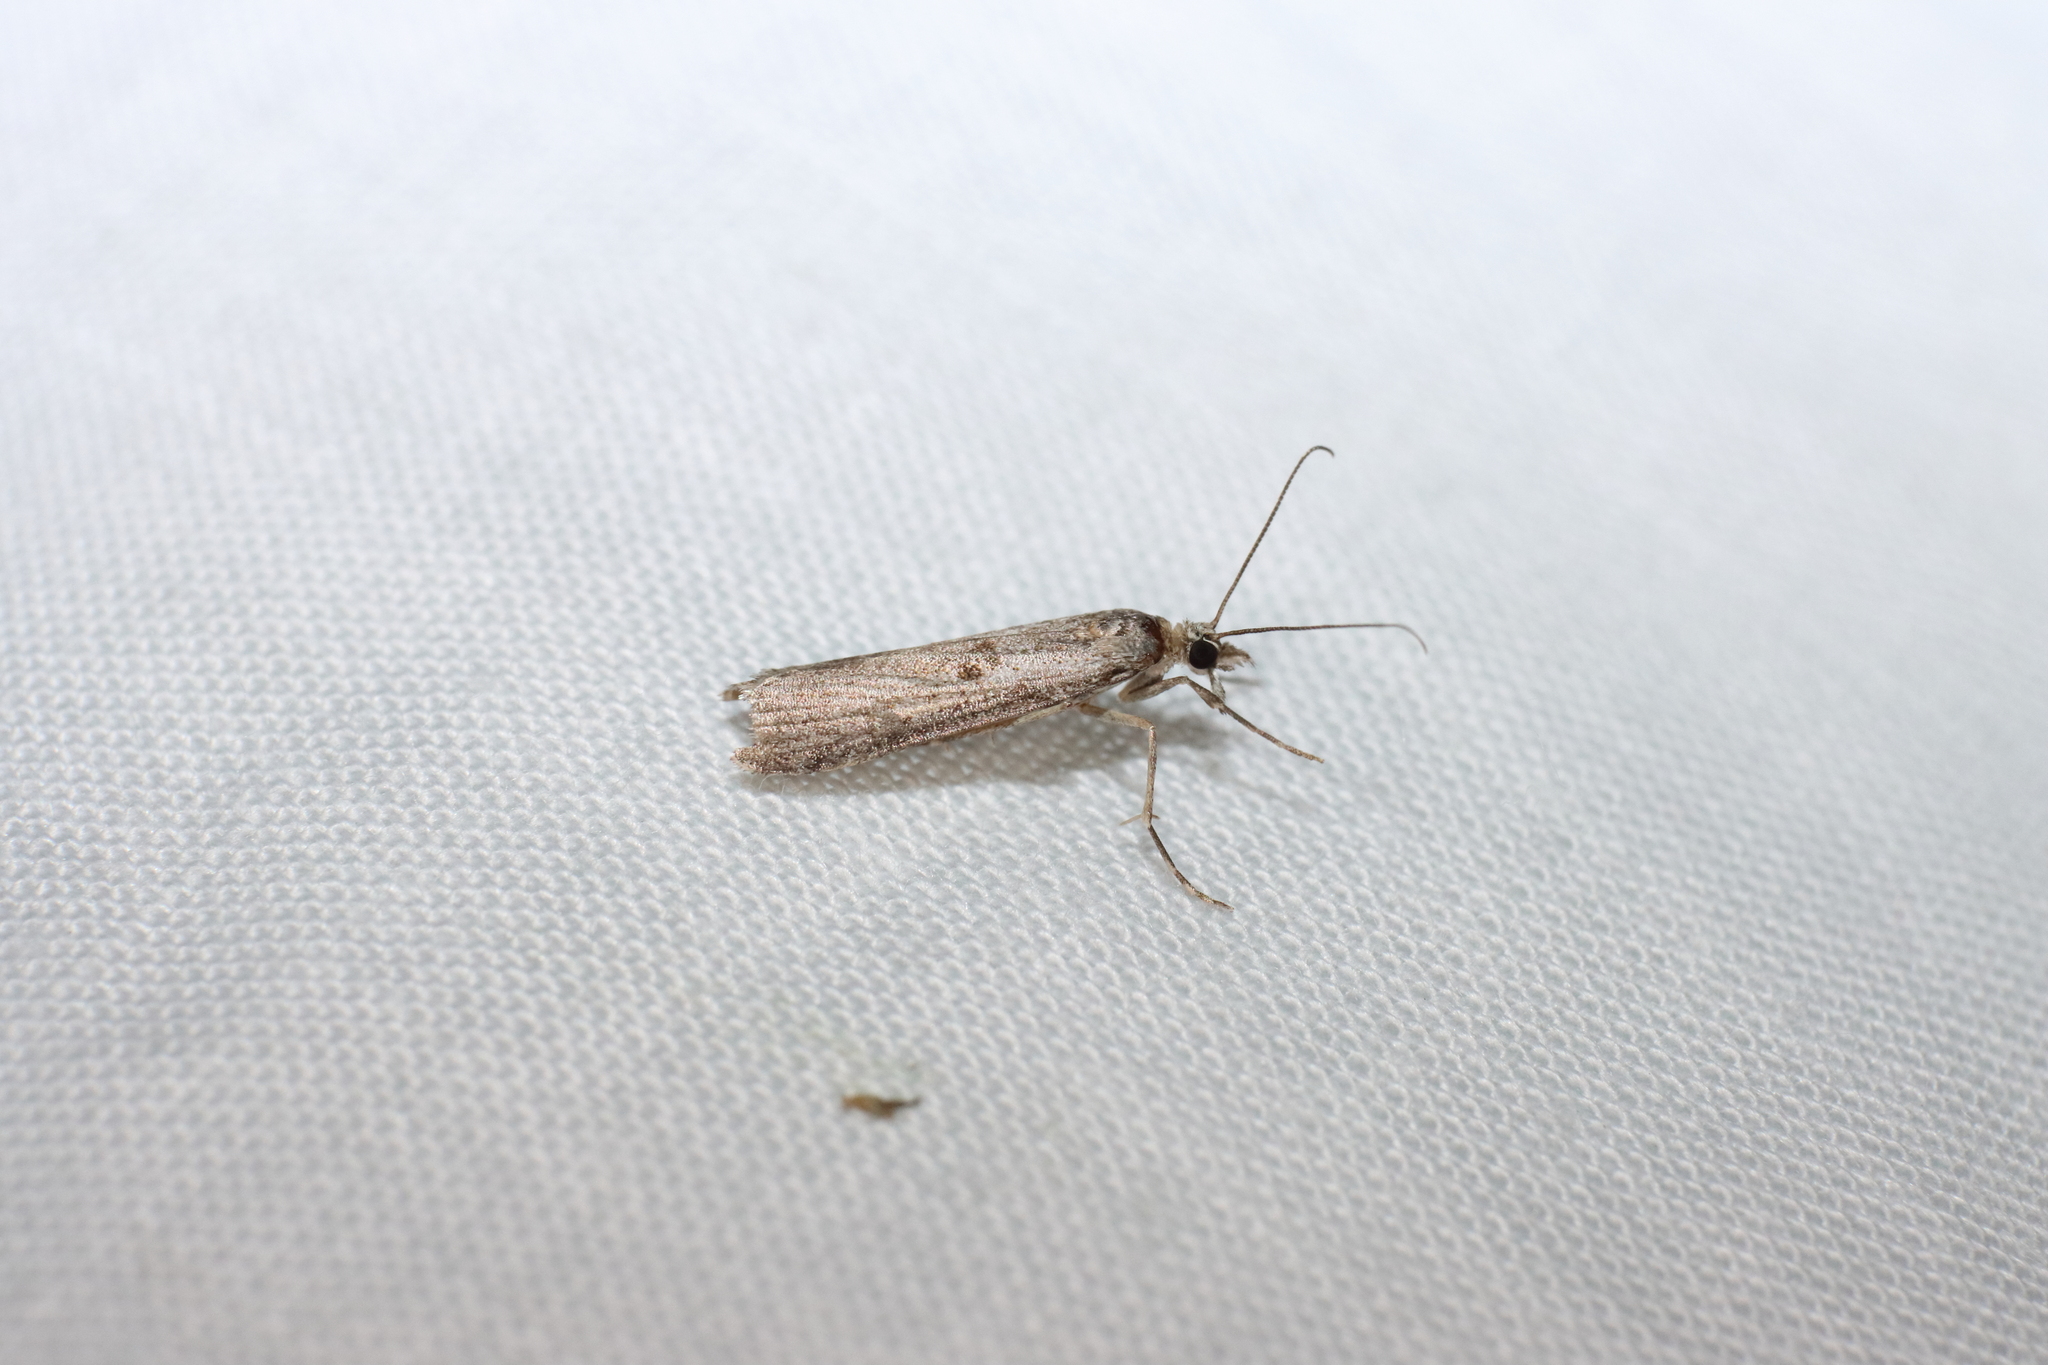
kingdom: Animalia
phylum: Arthropoda
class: Insecta
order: Lepidoptera
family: Crambidae
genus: Eudonia
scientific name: Eudonia leptalea
